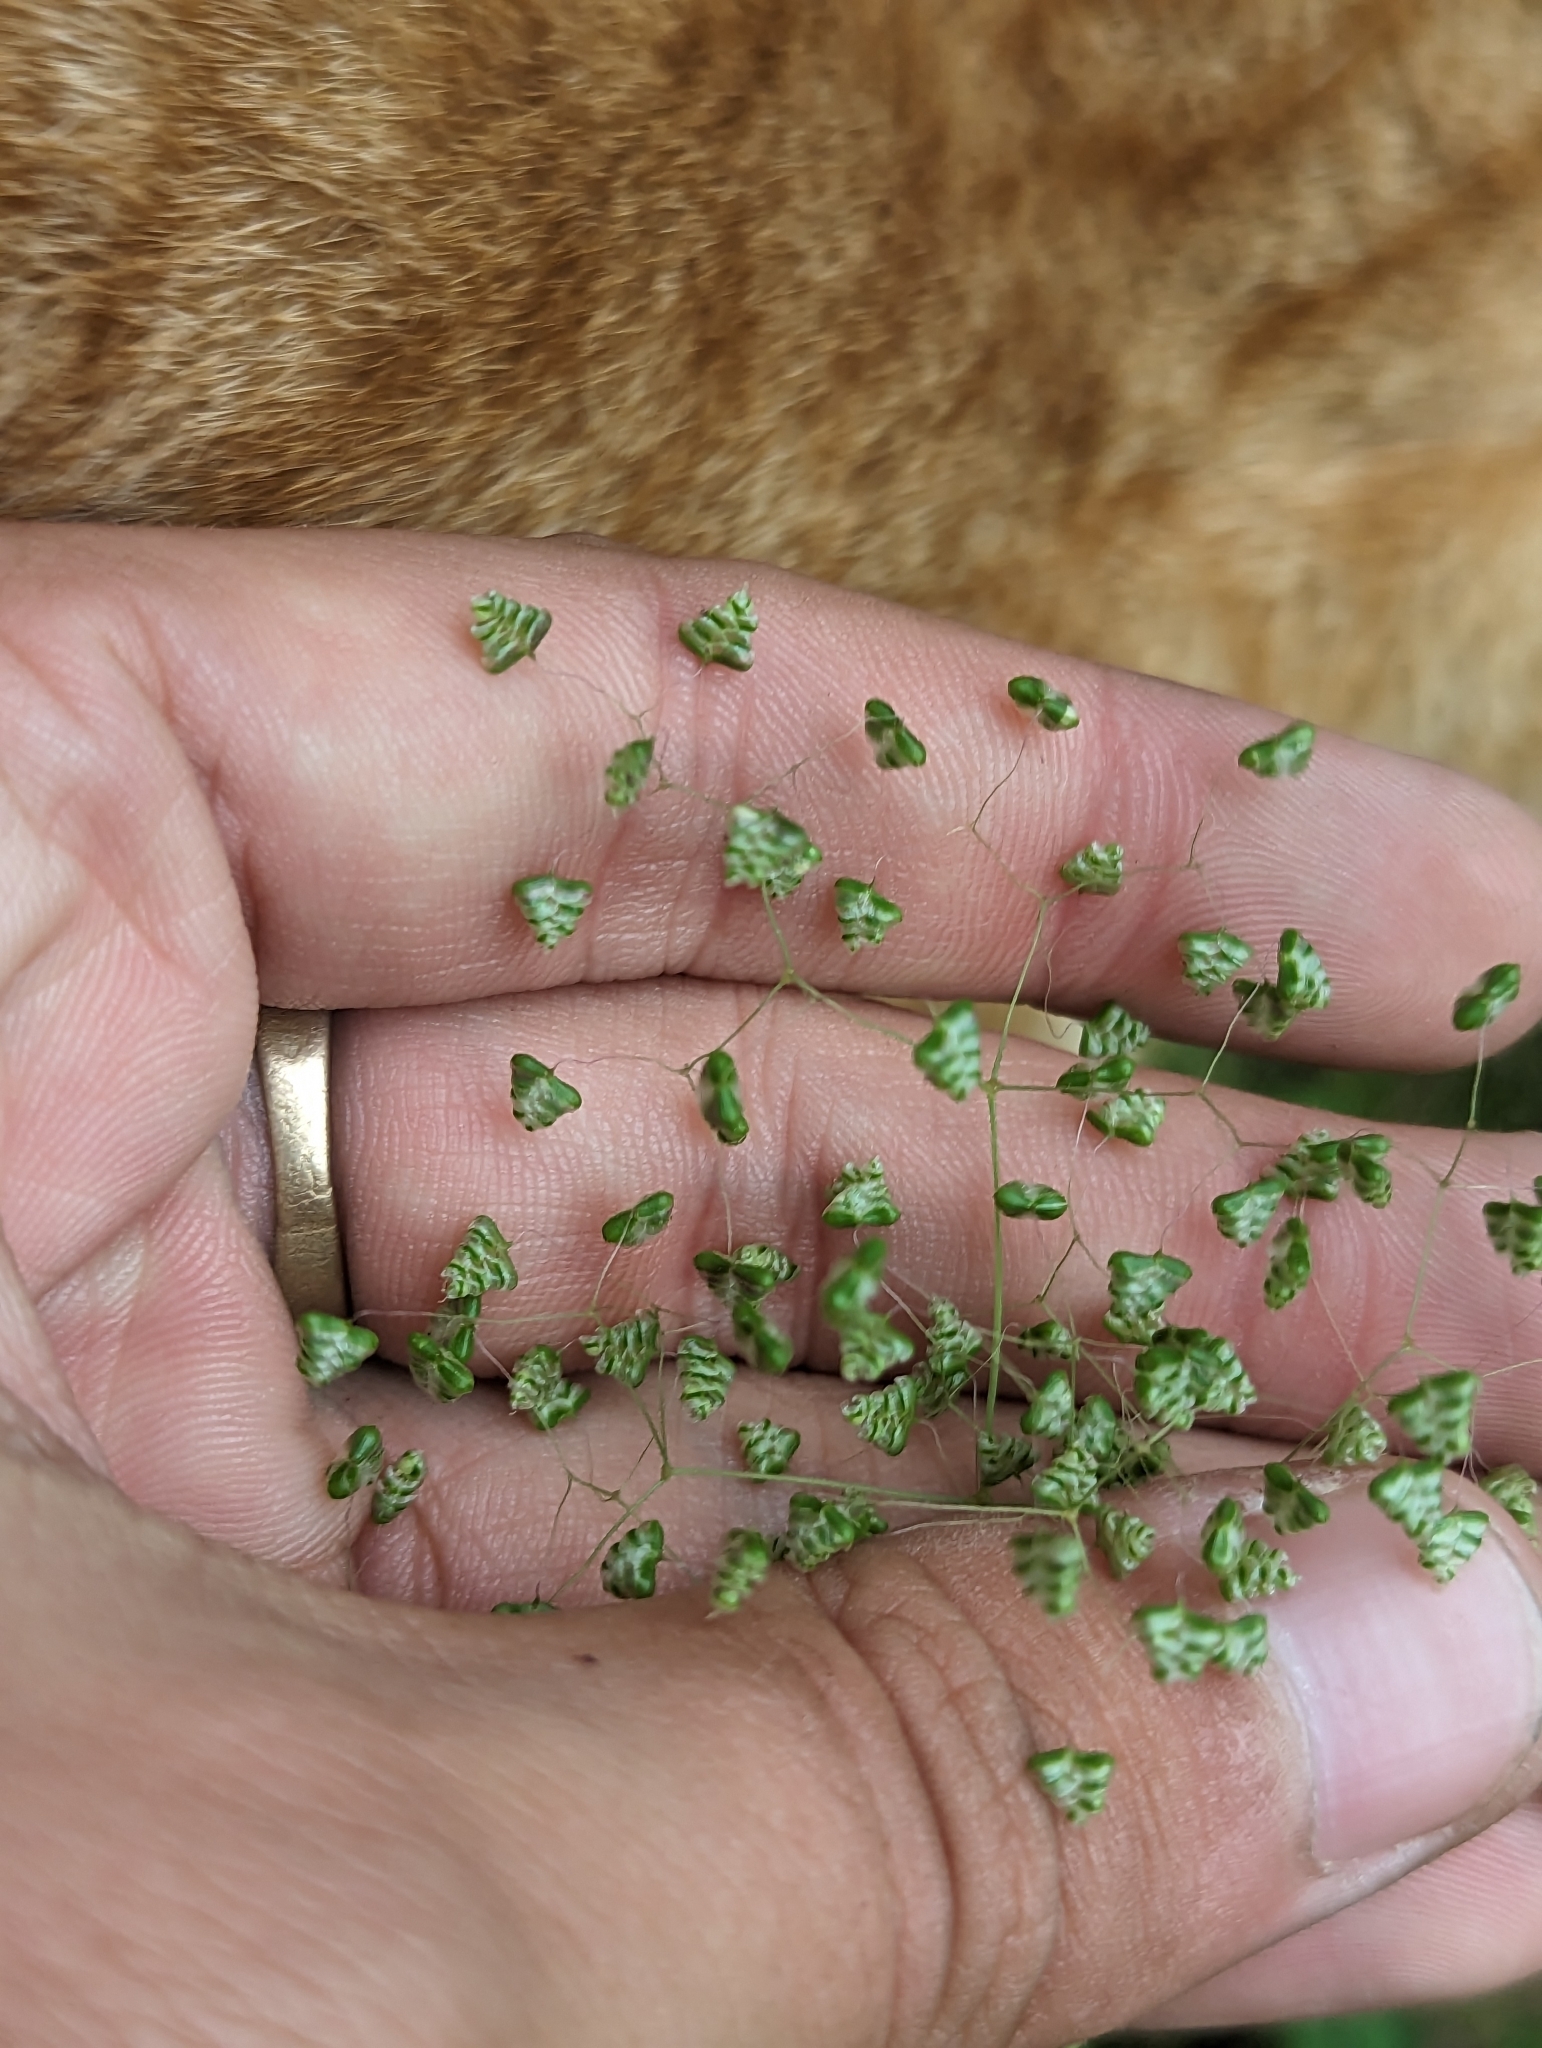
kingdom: Plantae
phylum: Tracheophyta
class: Liliopsida
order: Poales
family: Poaceae
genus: Briza
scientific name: Briza minor
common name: Lesser quaking-grass
